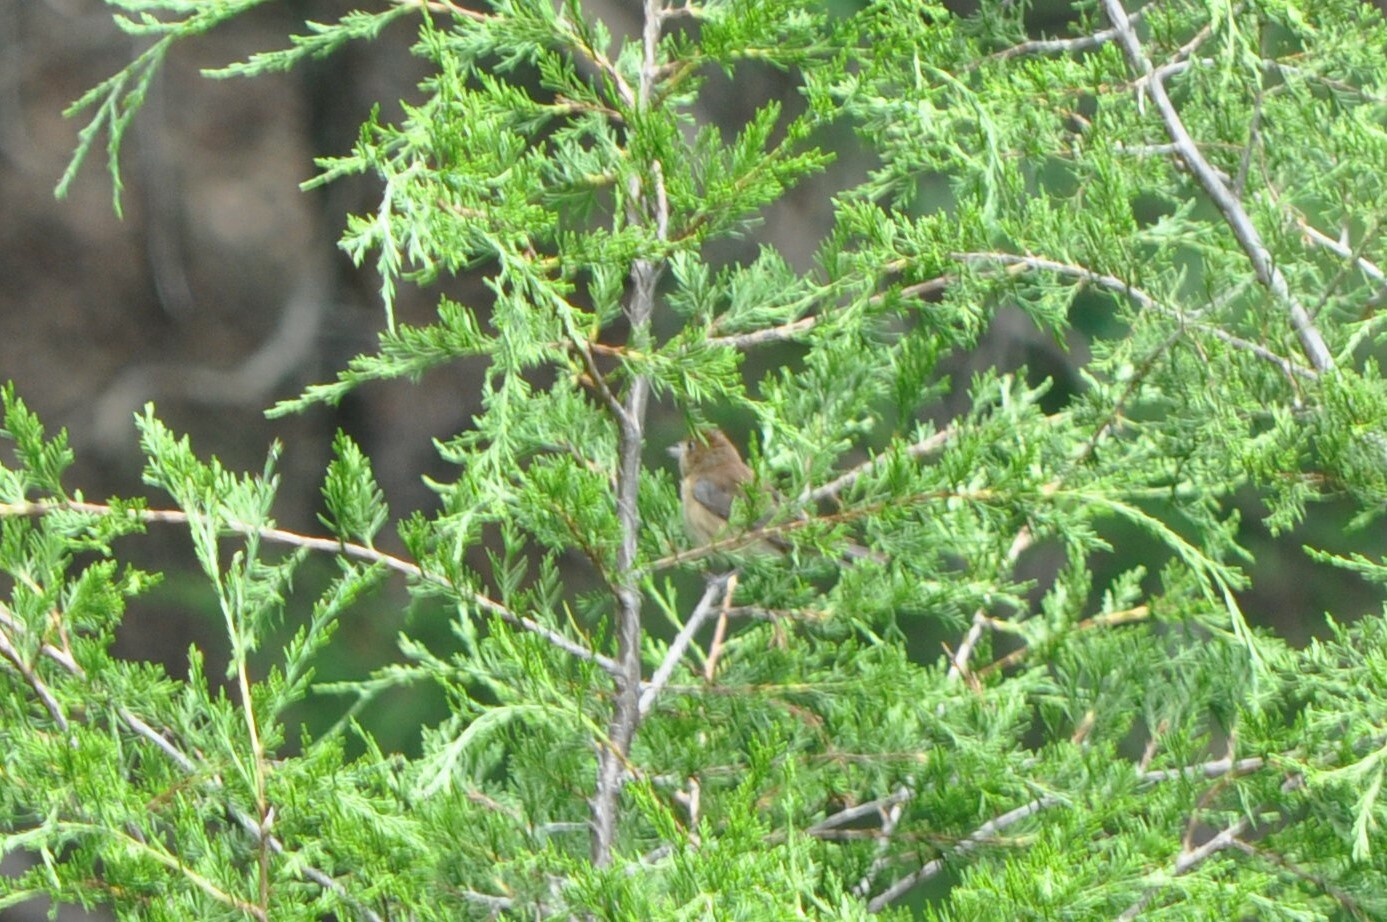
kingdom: Animalia
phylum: Chordata
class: Aves
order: Passeriformes
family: Cardinalidae
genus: Passerina
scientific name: Passerina cyanea
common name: Indigo bunting
